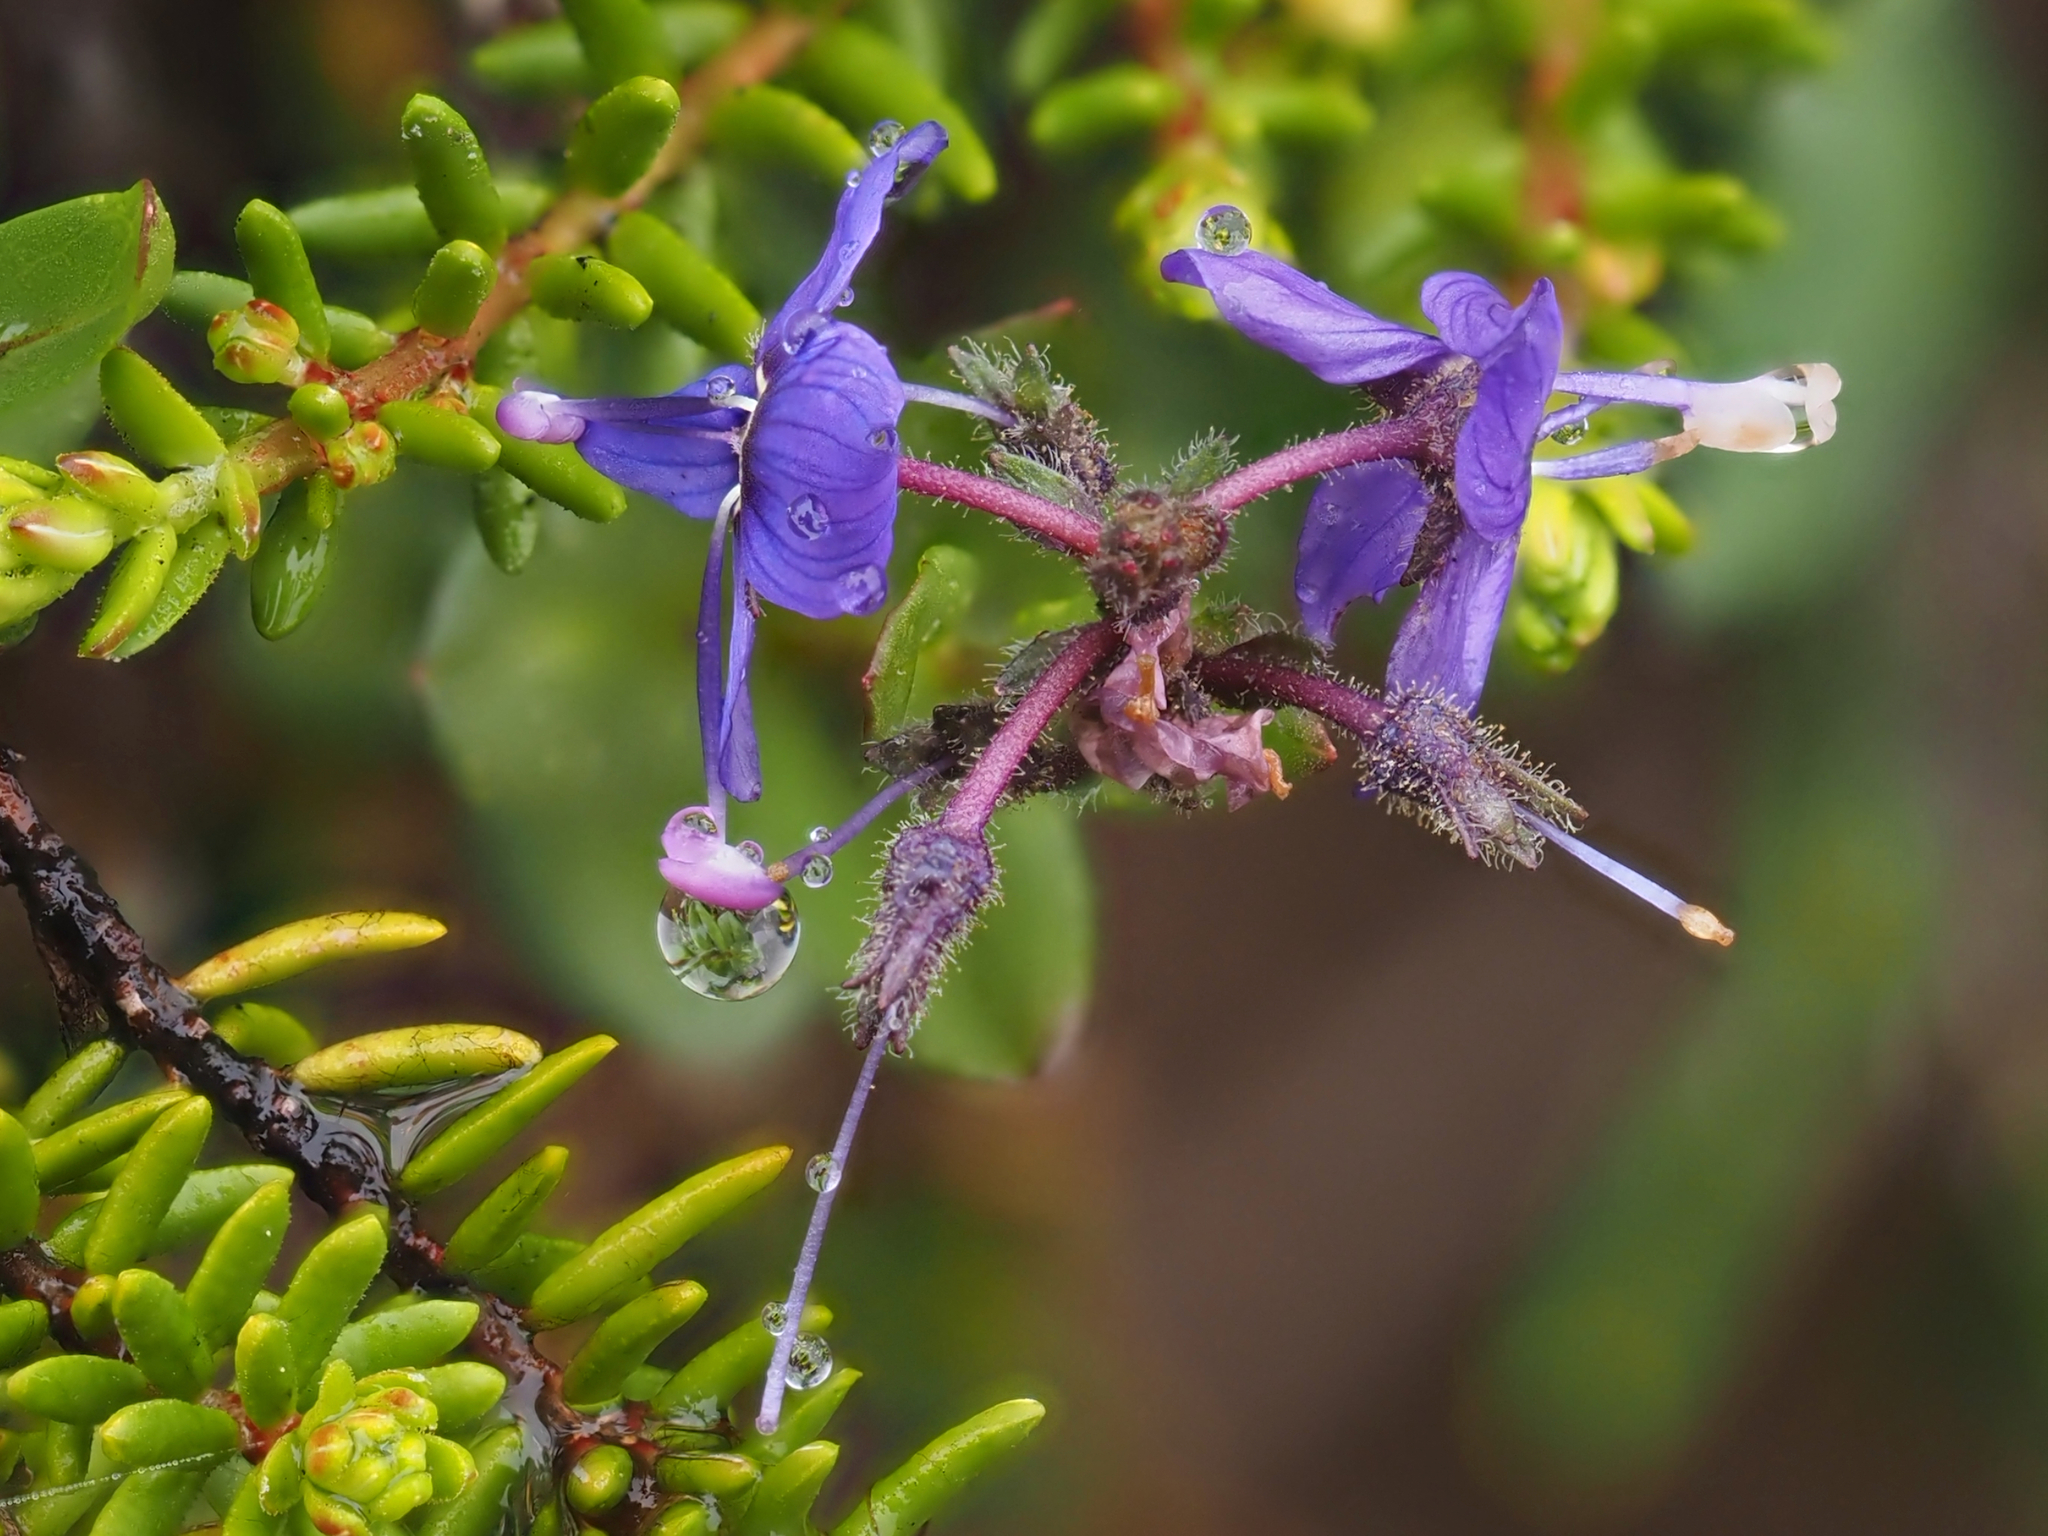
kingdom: Plantae
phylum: Tracheophyta
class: Magnoliopsida
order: Lamiales
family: Plantaginaceae
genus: Veronica
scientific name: Veronica cusickii
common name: Cusick's speedwell
